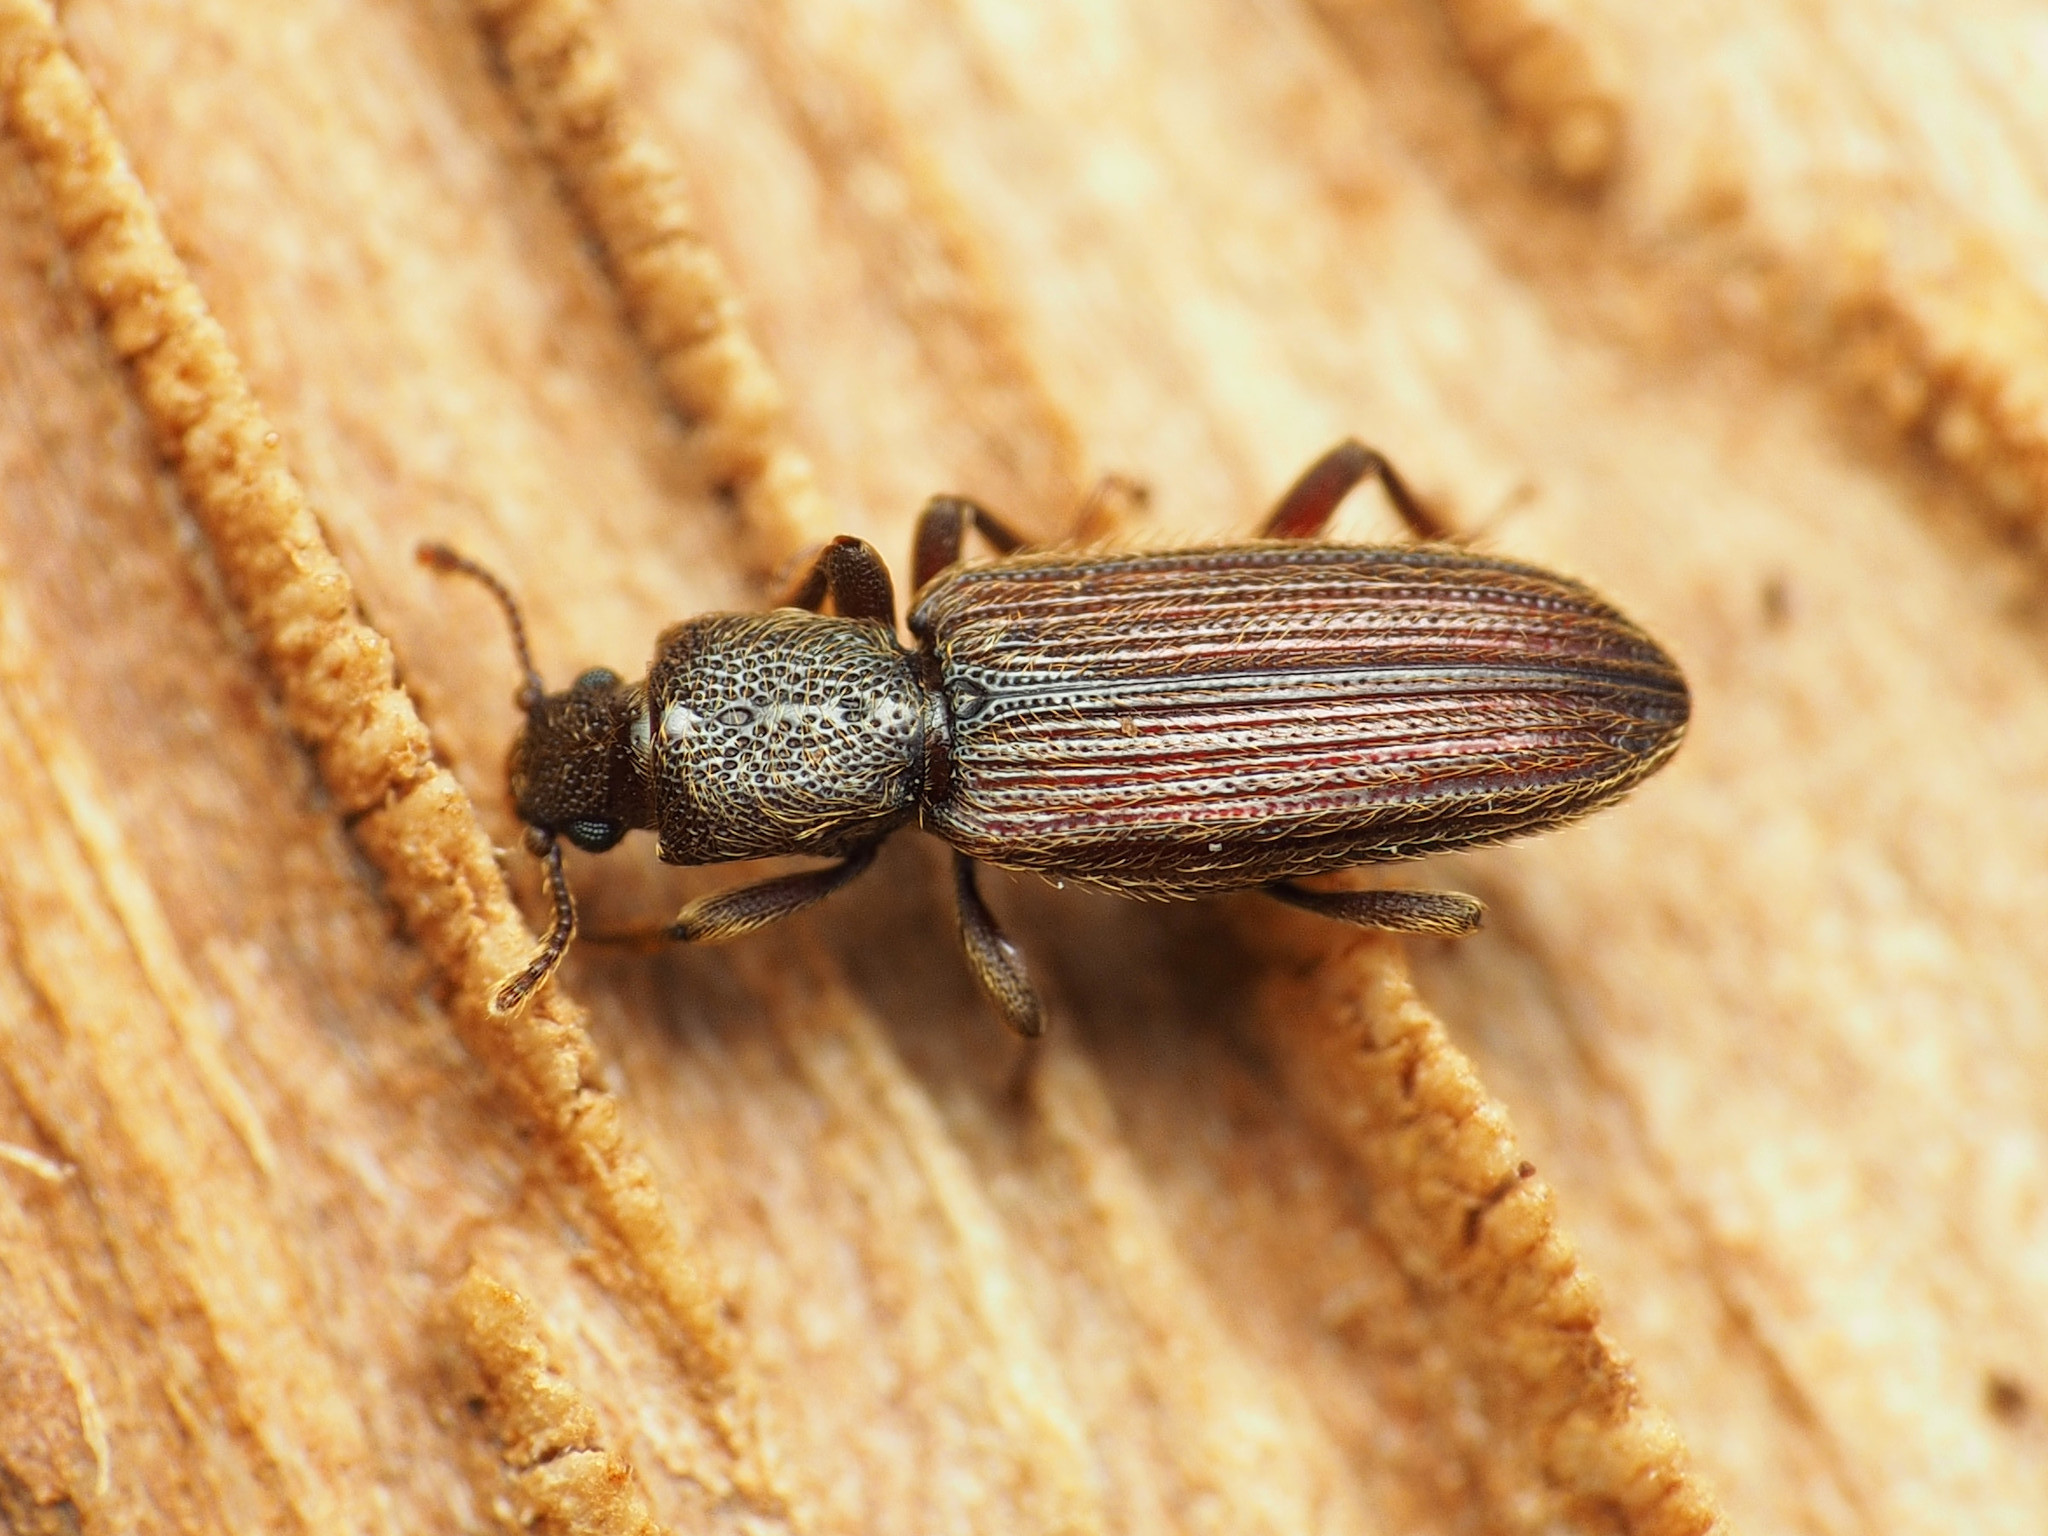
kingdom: Animalia
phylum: Arthropoda
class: Insecta
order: Coleoptera
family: Bothrideridae
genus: Bothrideres
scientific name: Bothrideres cryptus
